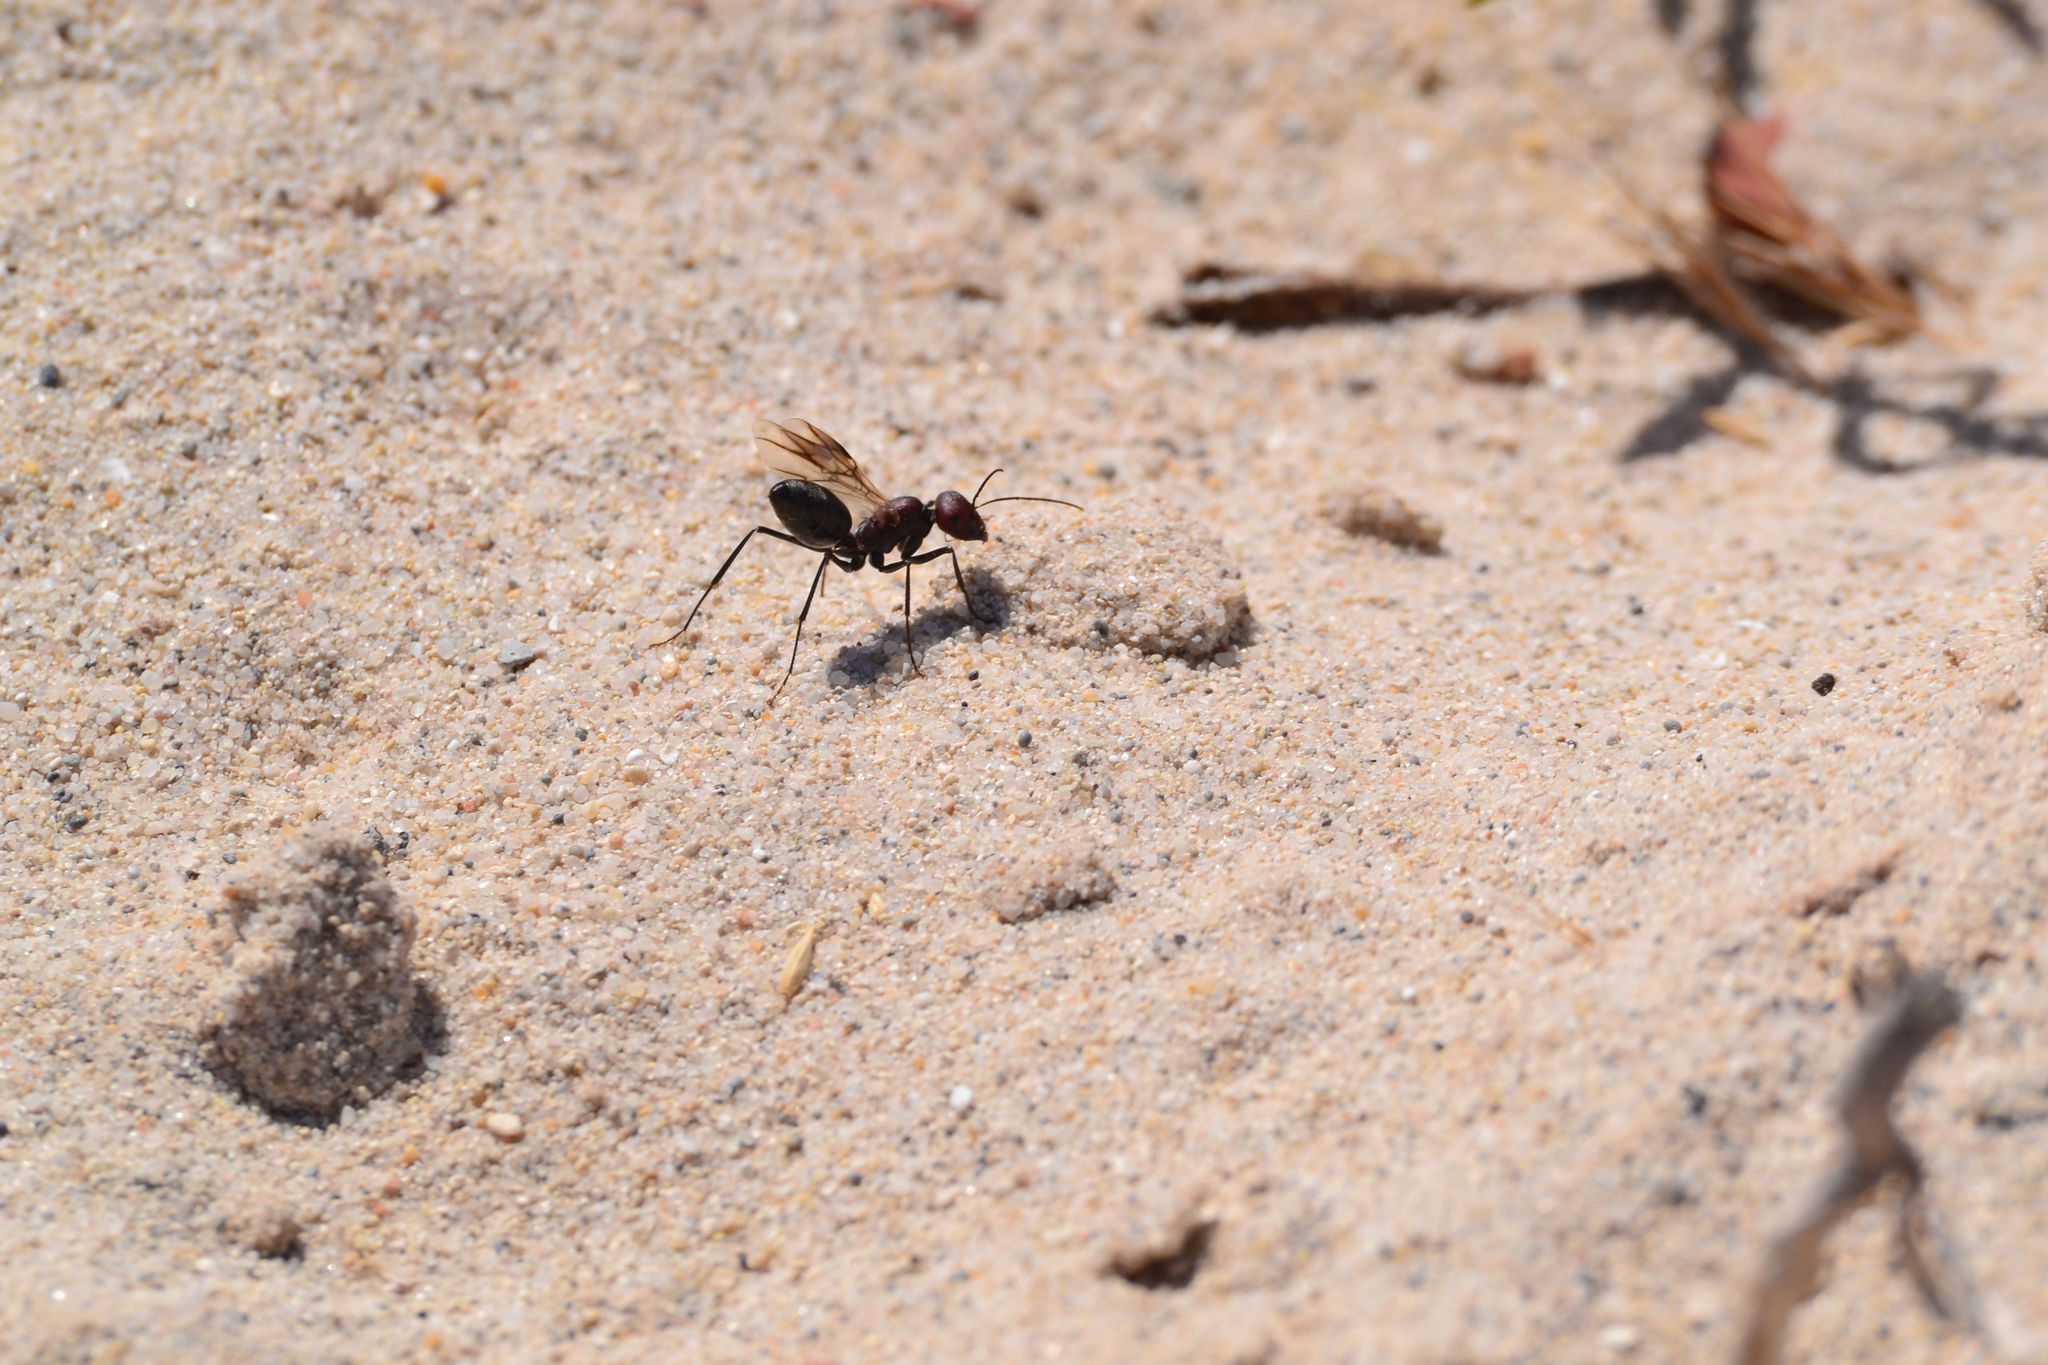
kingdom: Animalia
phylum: Arthropoda
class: Insecta
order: Hymenoptera
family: Formicidae
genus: Cataglyphis
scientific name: Cataglyphis savignyi
